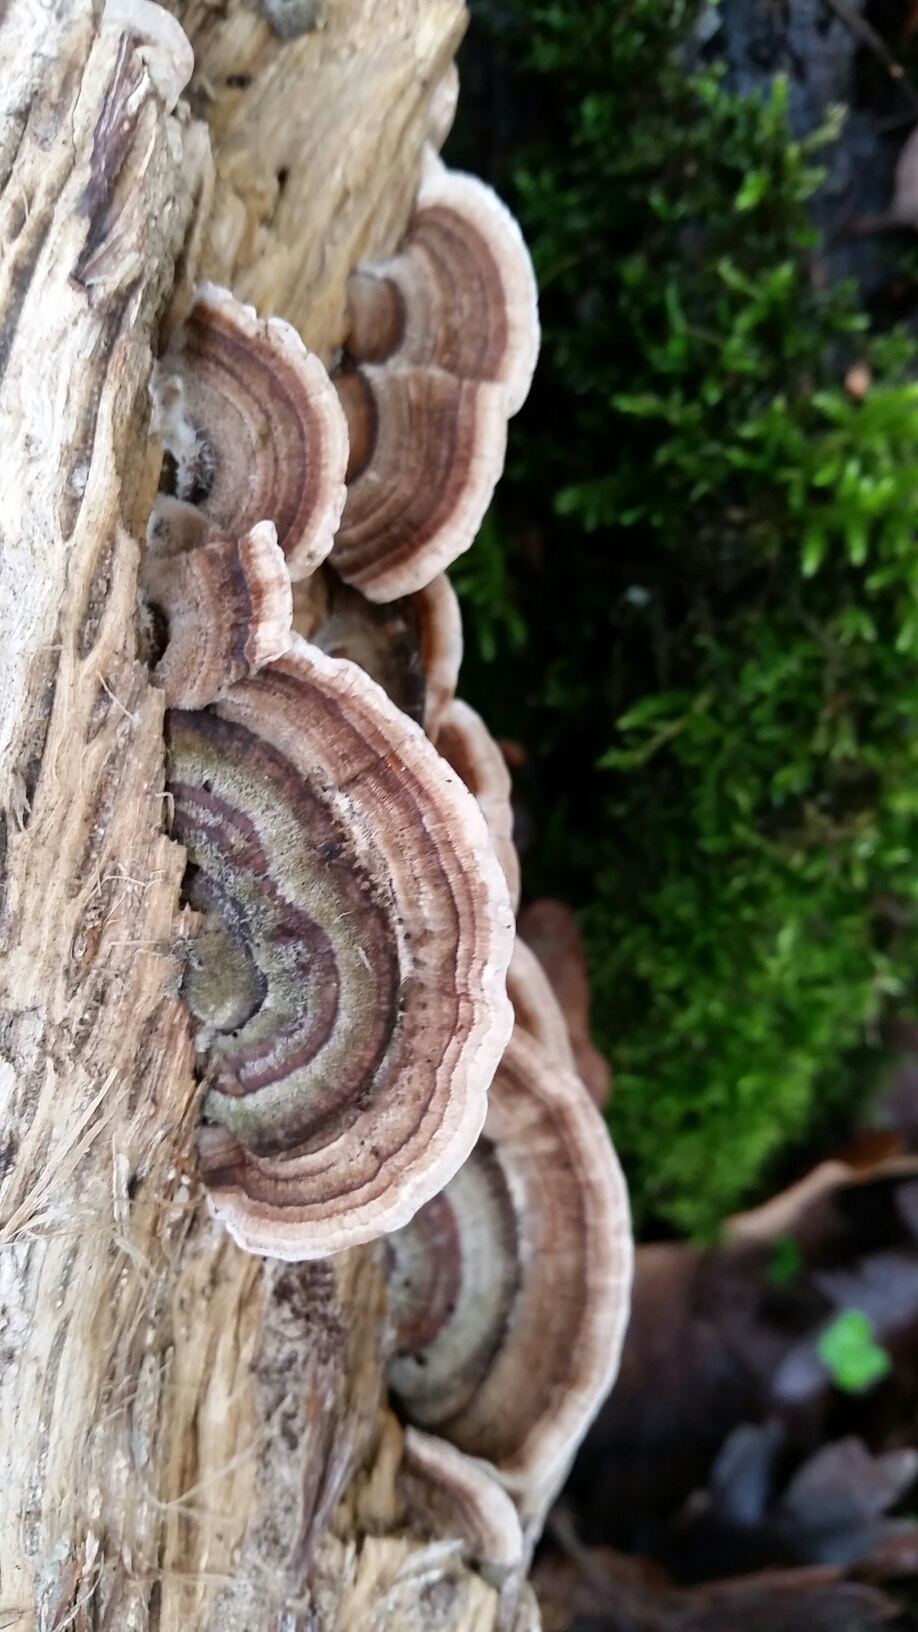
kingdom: Fungi
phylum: Basidiomycota
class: Agaricomycetes
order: Polyporales
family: Polyporaceae
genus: Trametes
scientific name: Trametes versicolor
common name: Turkeytail
